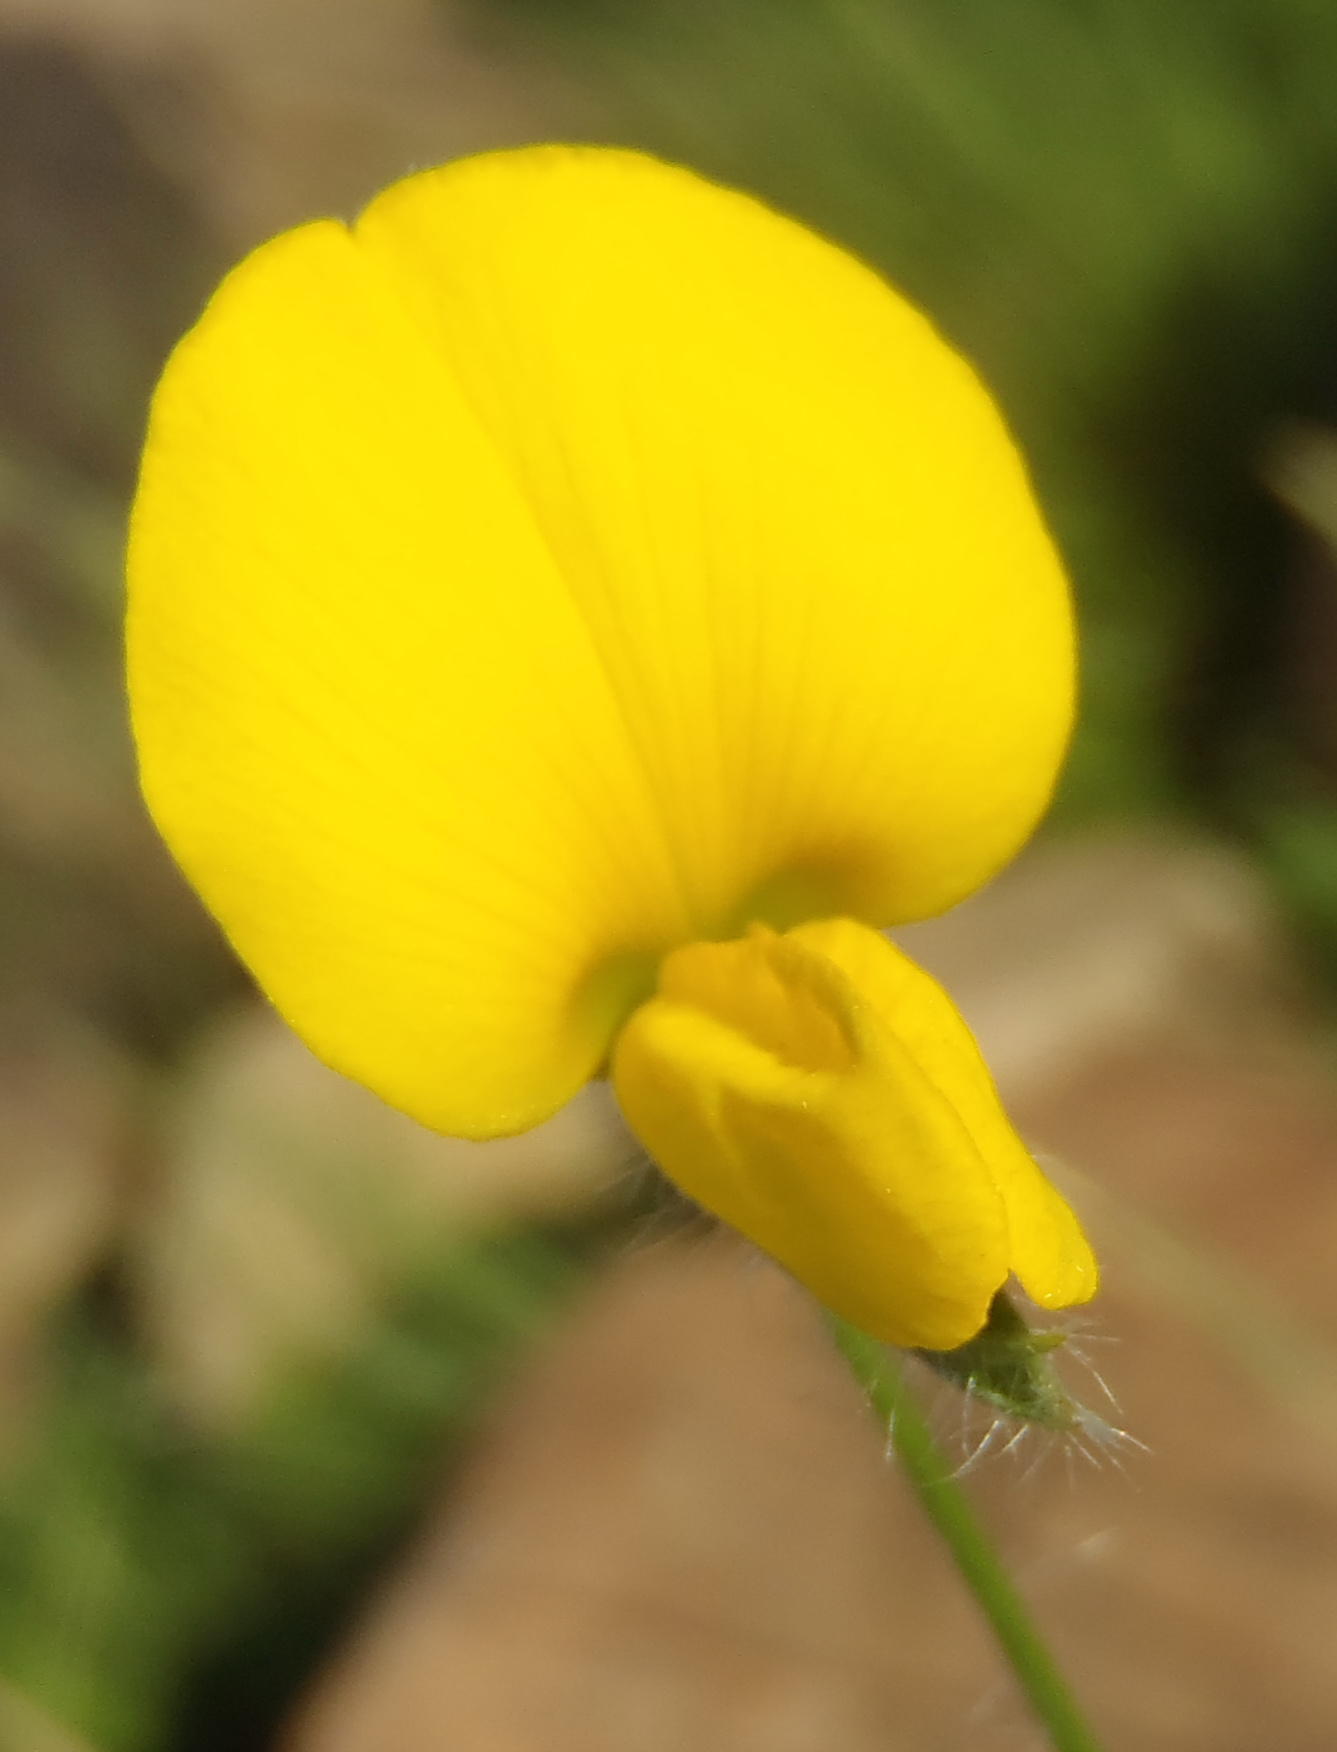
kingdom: Plantae
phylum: Tracheophyta
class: Magnoliopsida
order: Fabales
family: Fabaceae
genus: Argyrolobium
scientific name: Argyrolobium pauciflorum
